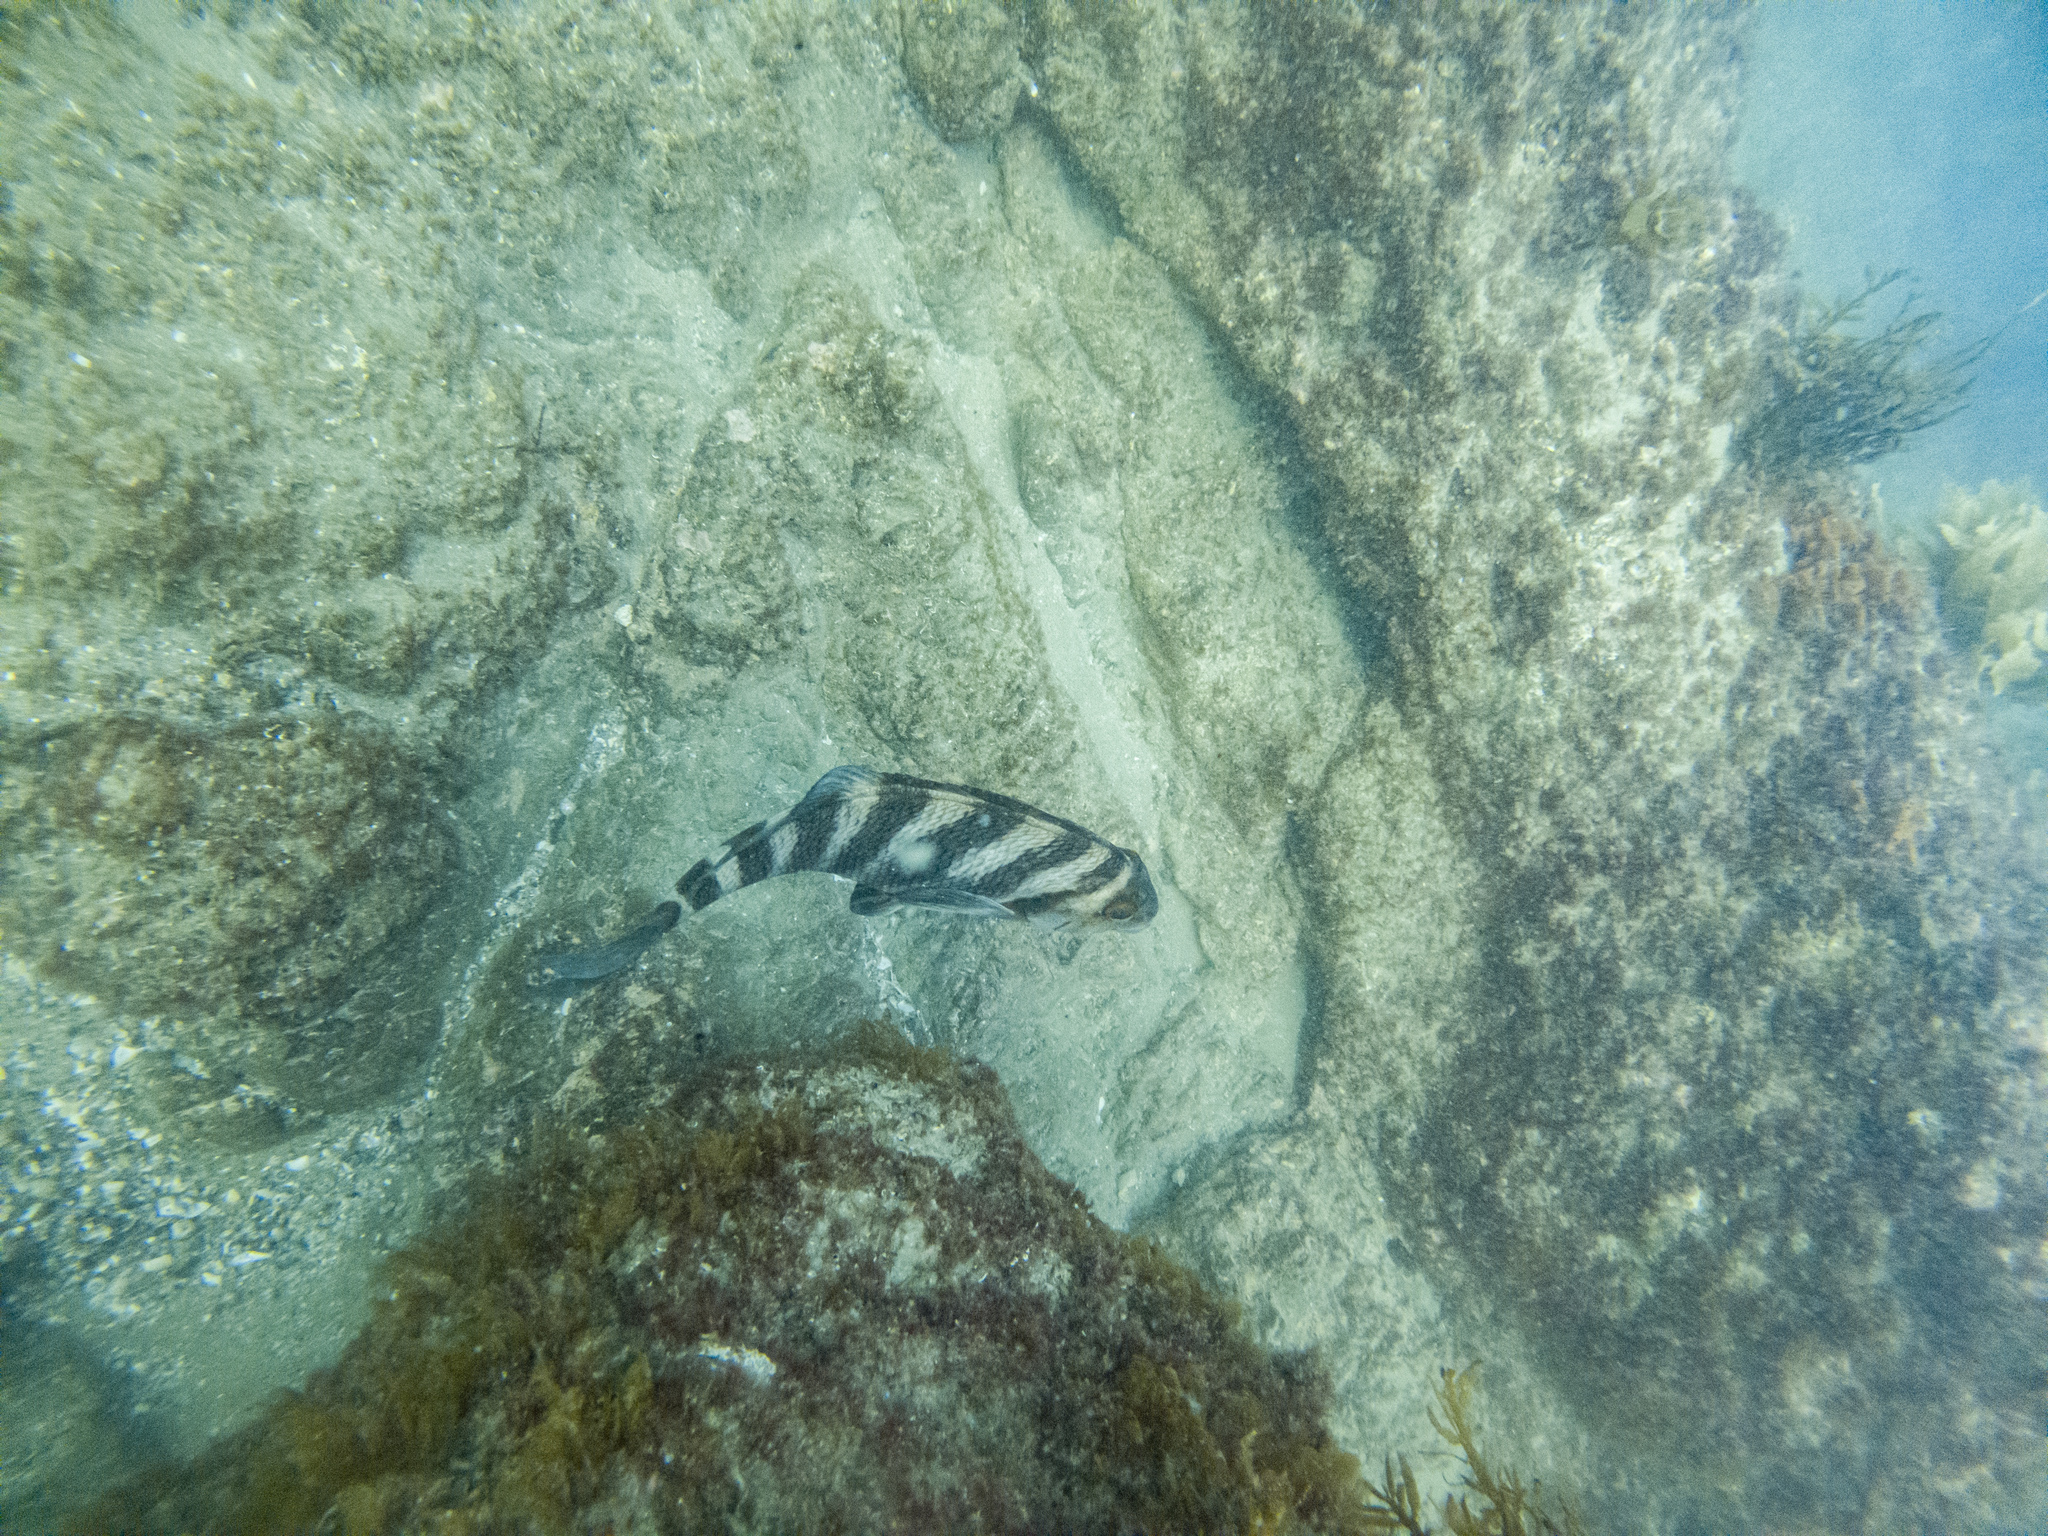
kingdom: Animalia
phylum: Chordata
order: Perciformes
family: Cheilodactylidae
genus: Cheilodactylus
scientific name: Cheilodactylus spectabilis
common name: Red moki
